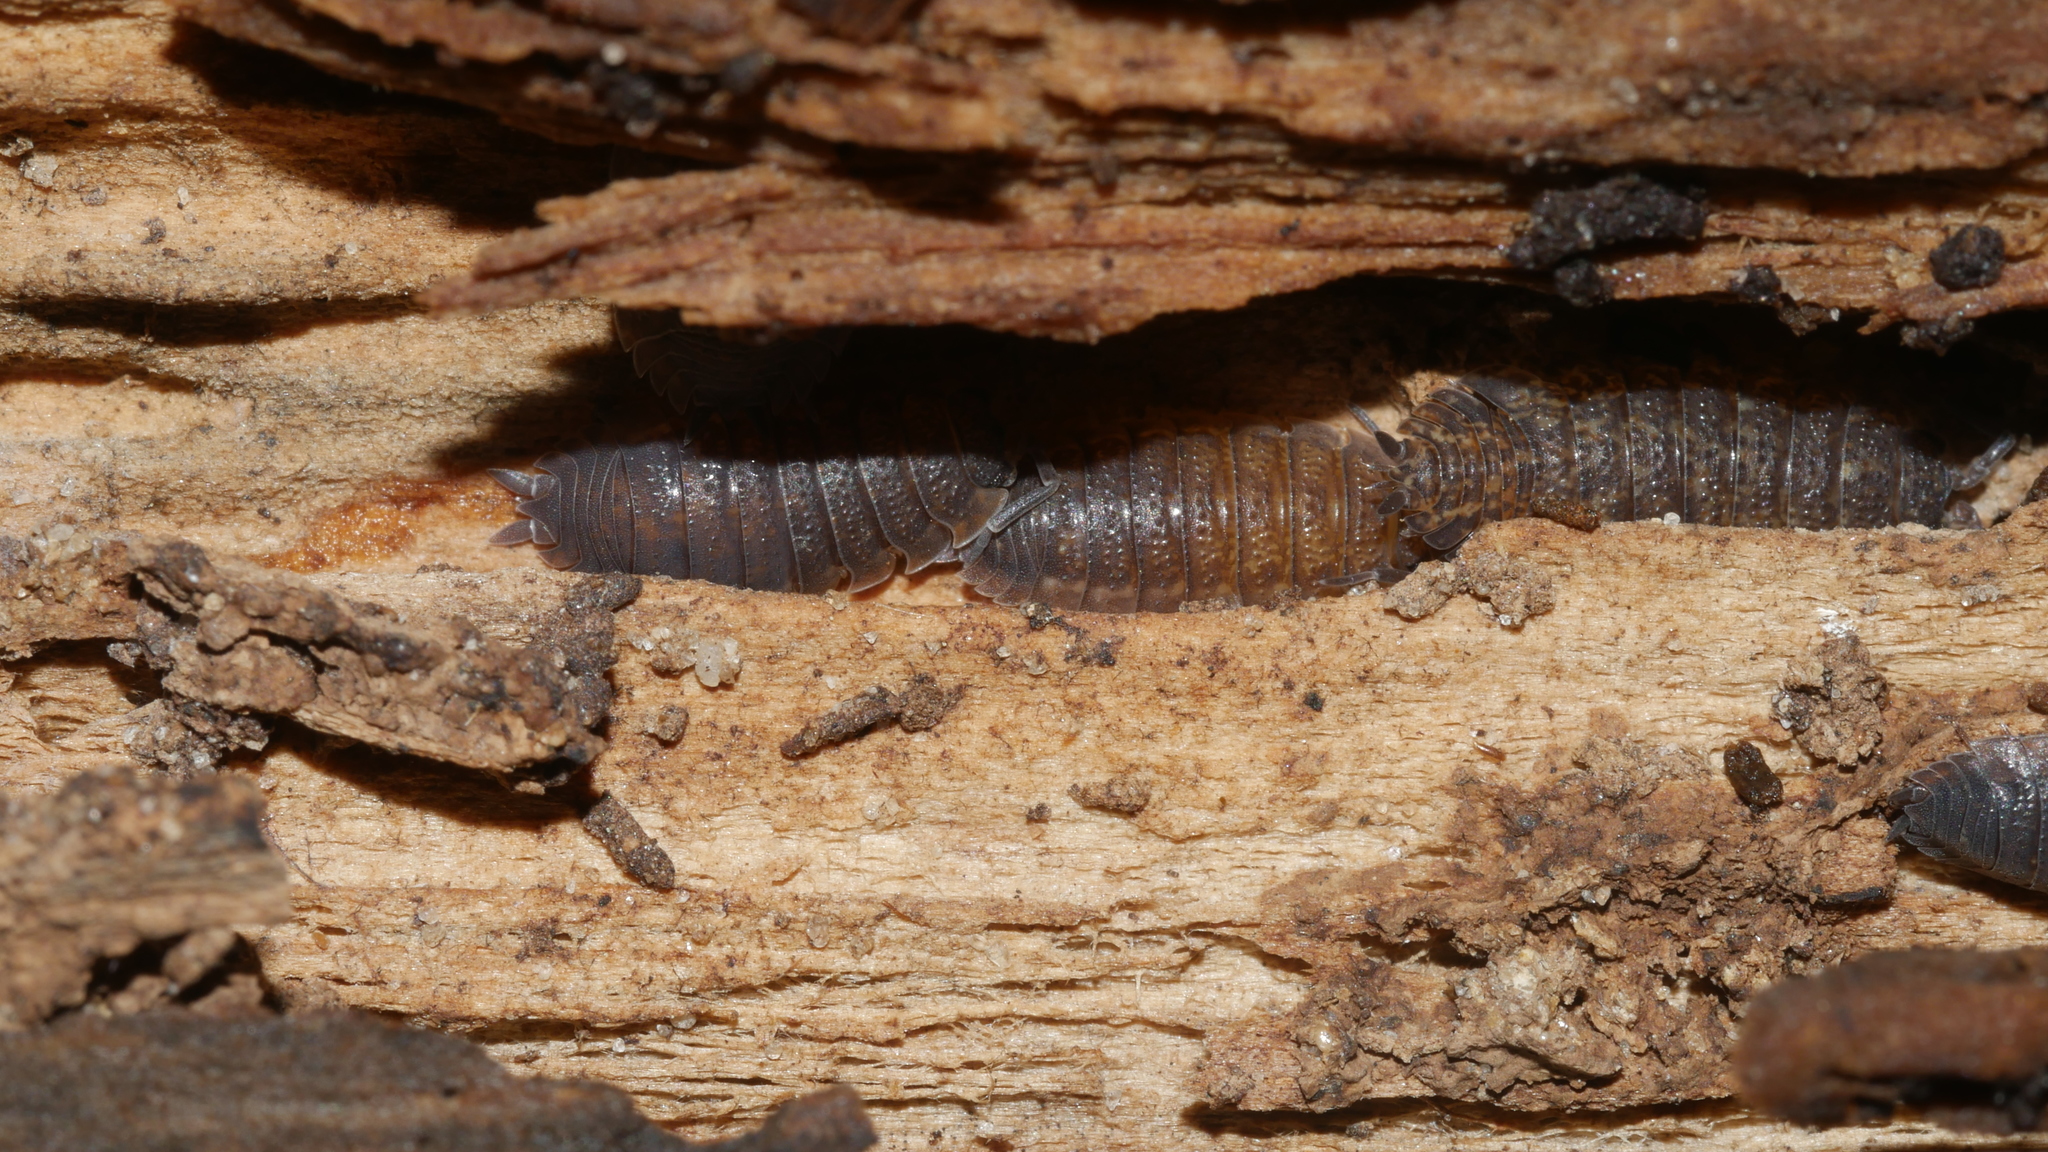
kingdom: Animalia
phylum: Arthropoda
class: Malacostraca
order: Isopoda
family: Porcellionidae
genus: Porcellio
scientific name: Porcellio scaber
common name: Common rough woodlouse
